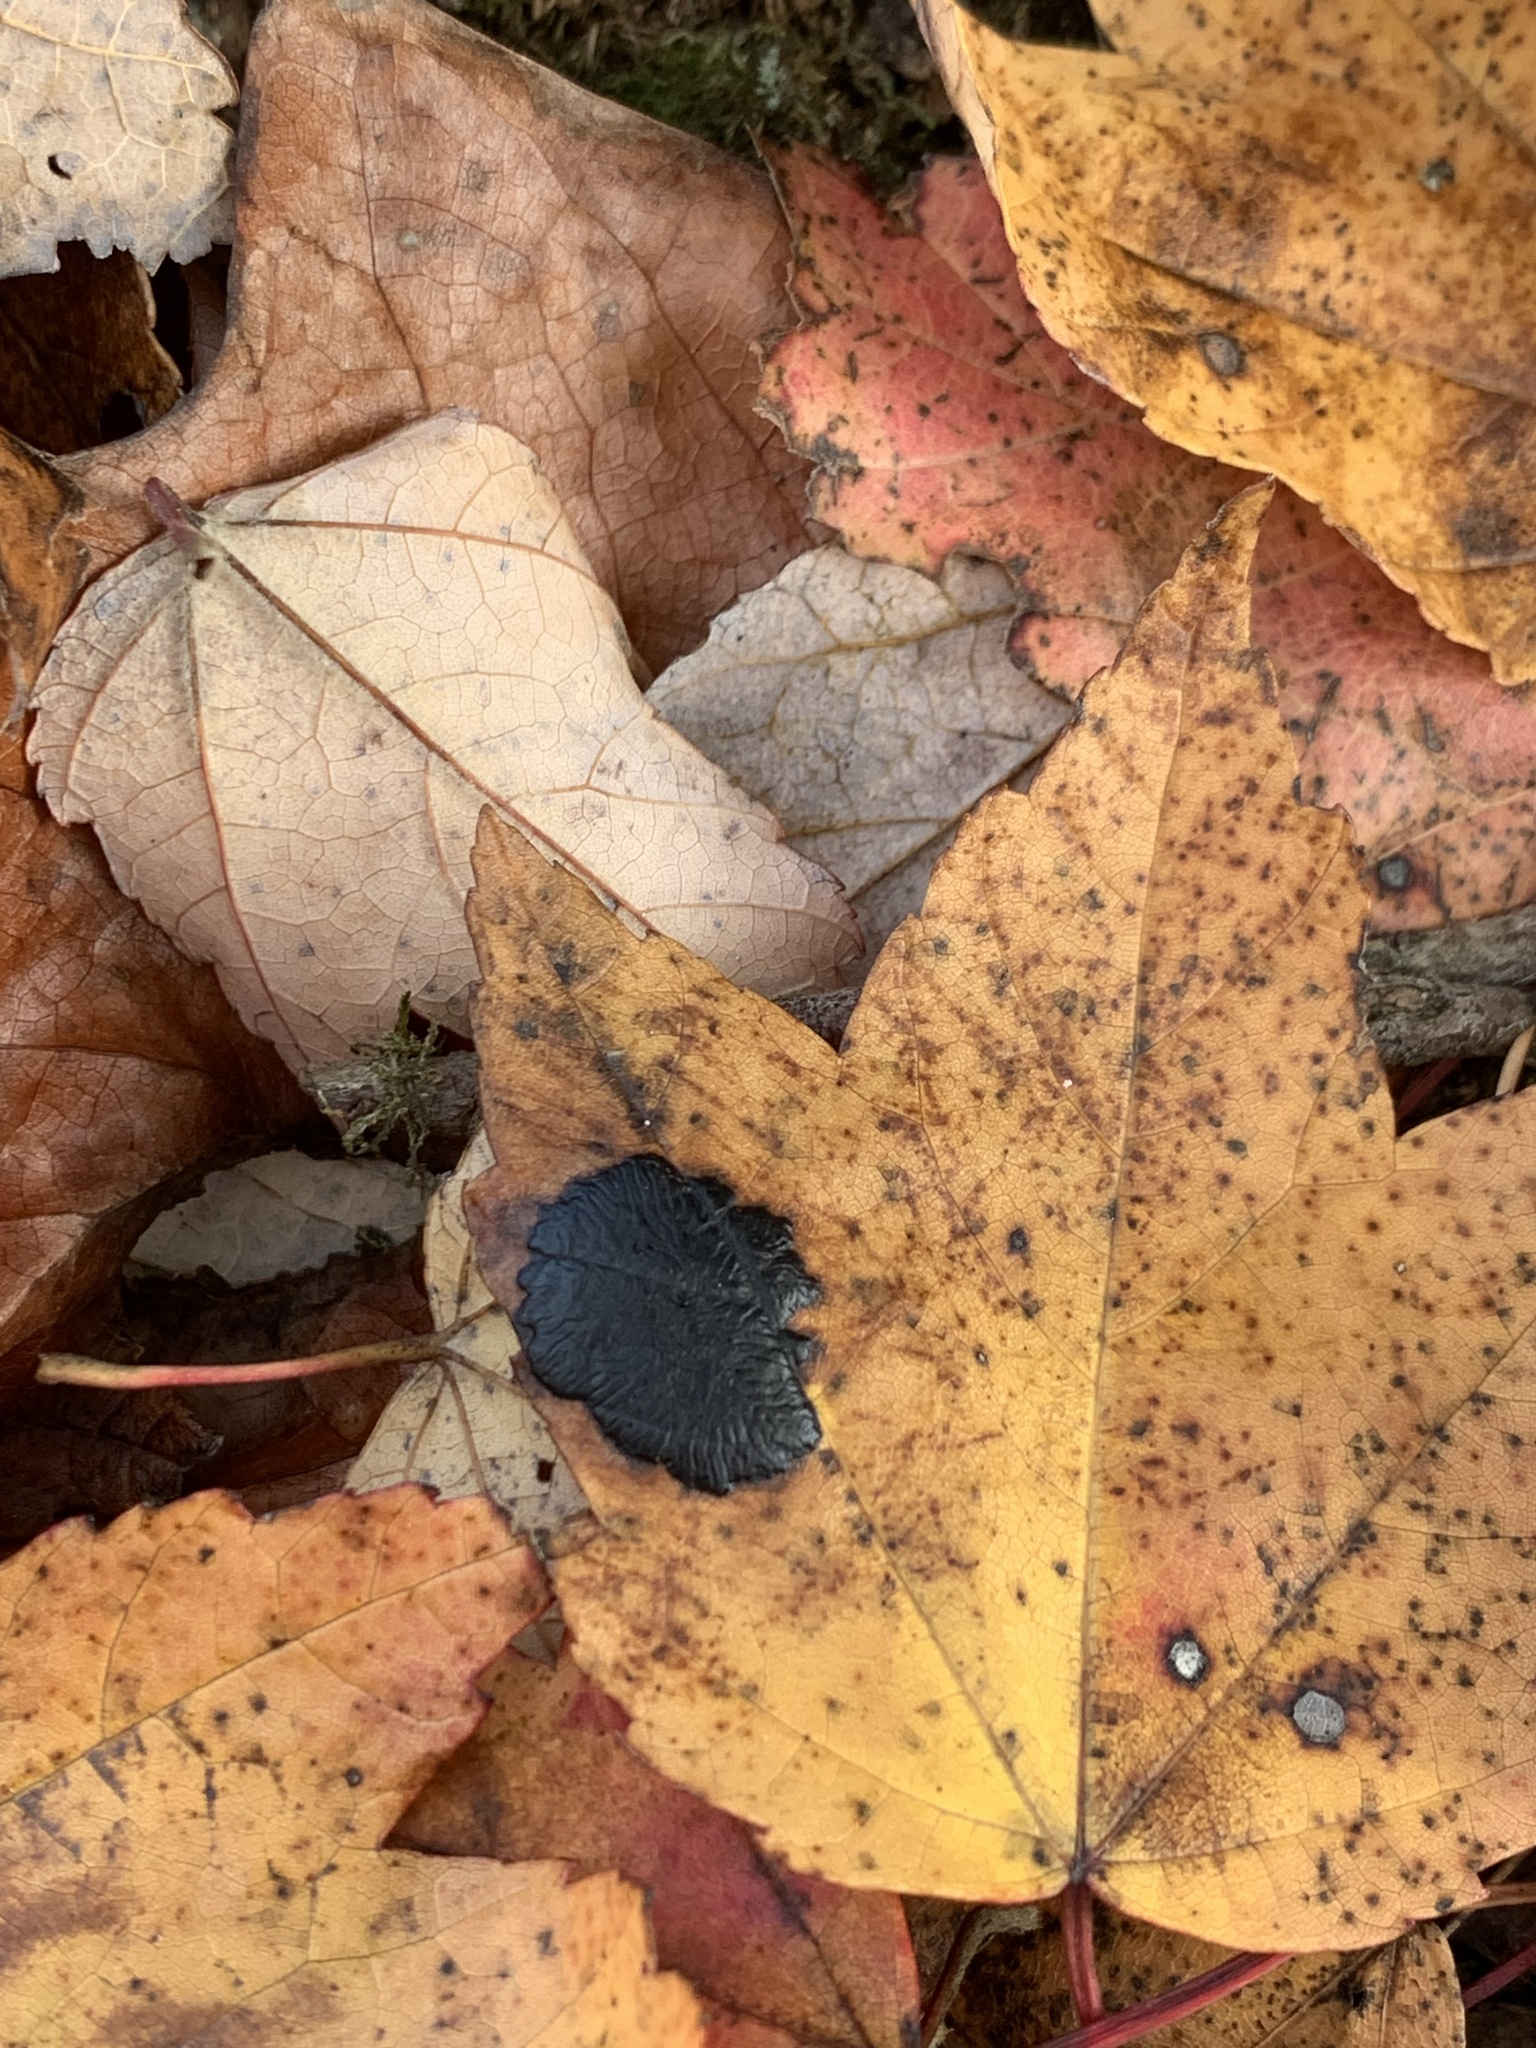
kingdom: Fungi
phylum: Ascomycota
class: Leotiomycetes
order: Rhytismatales
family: Rhytismataceae
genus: Rhytisma
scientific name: Rhytisma americanum
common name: American tar spot
